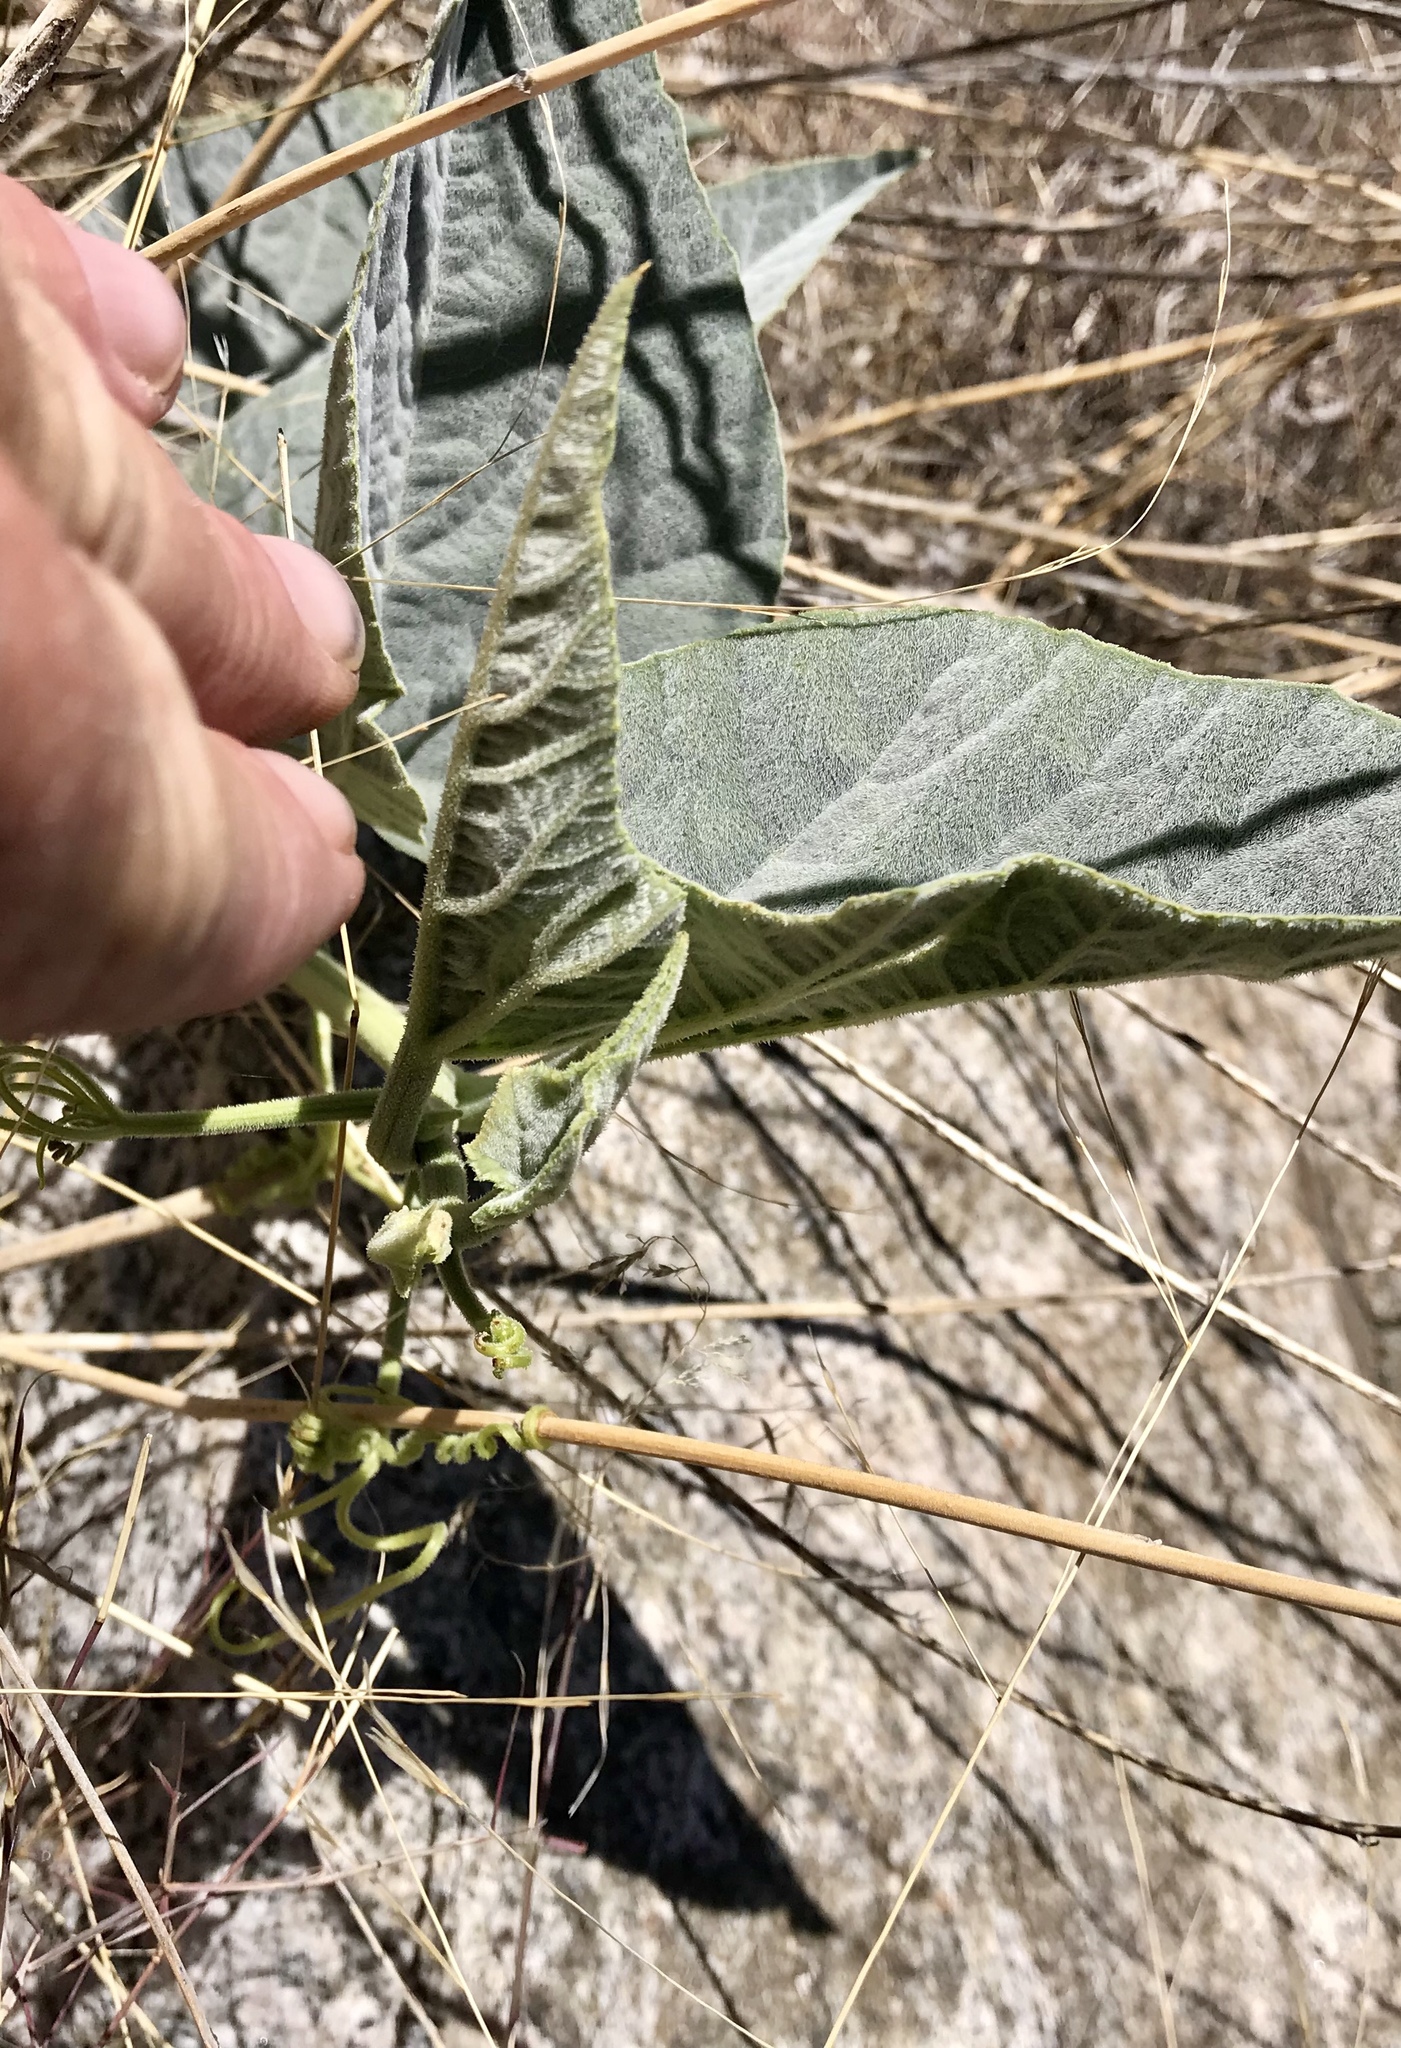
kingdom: Plantae
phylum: Tracheophyta
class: Magnoliopsida
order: Cucurbitales
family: Cucurbitaceae
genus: Cucurbita
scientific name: Cucurbita foetidissima
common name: Buffalo gourd
